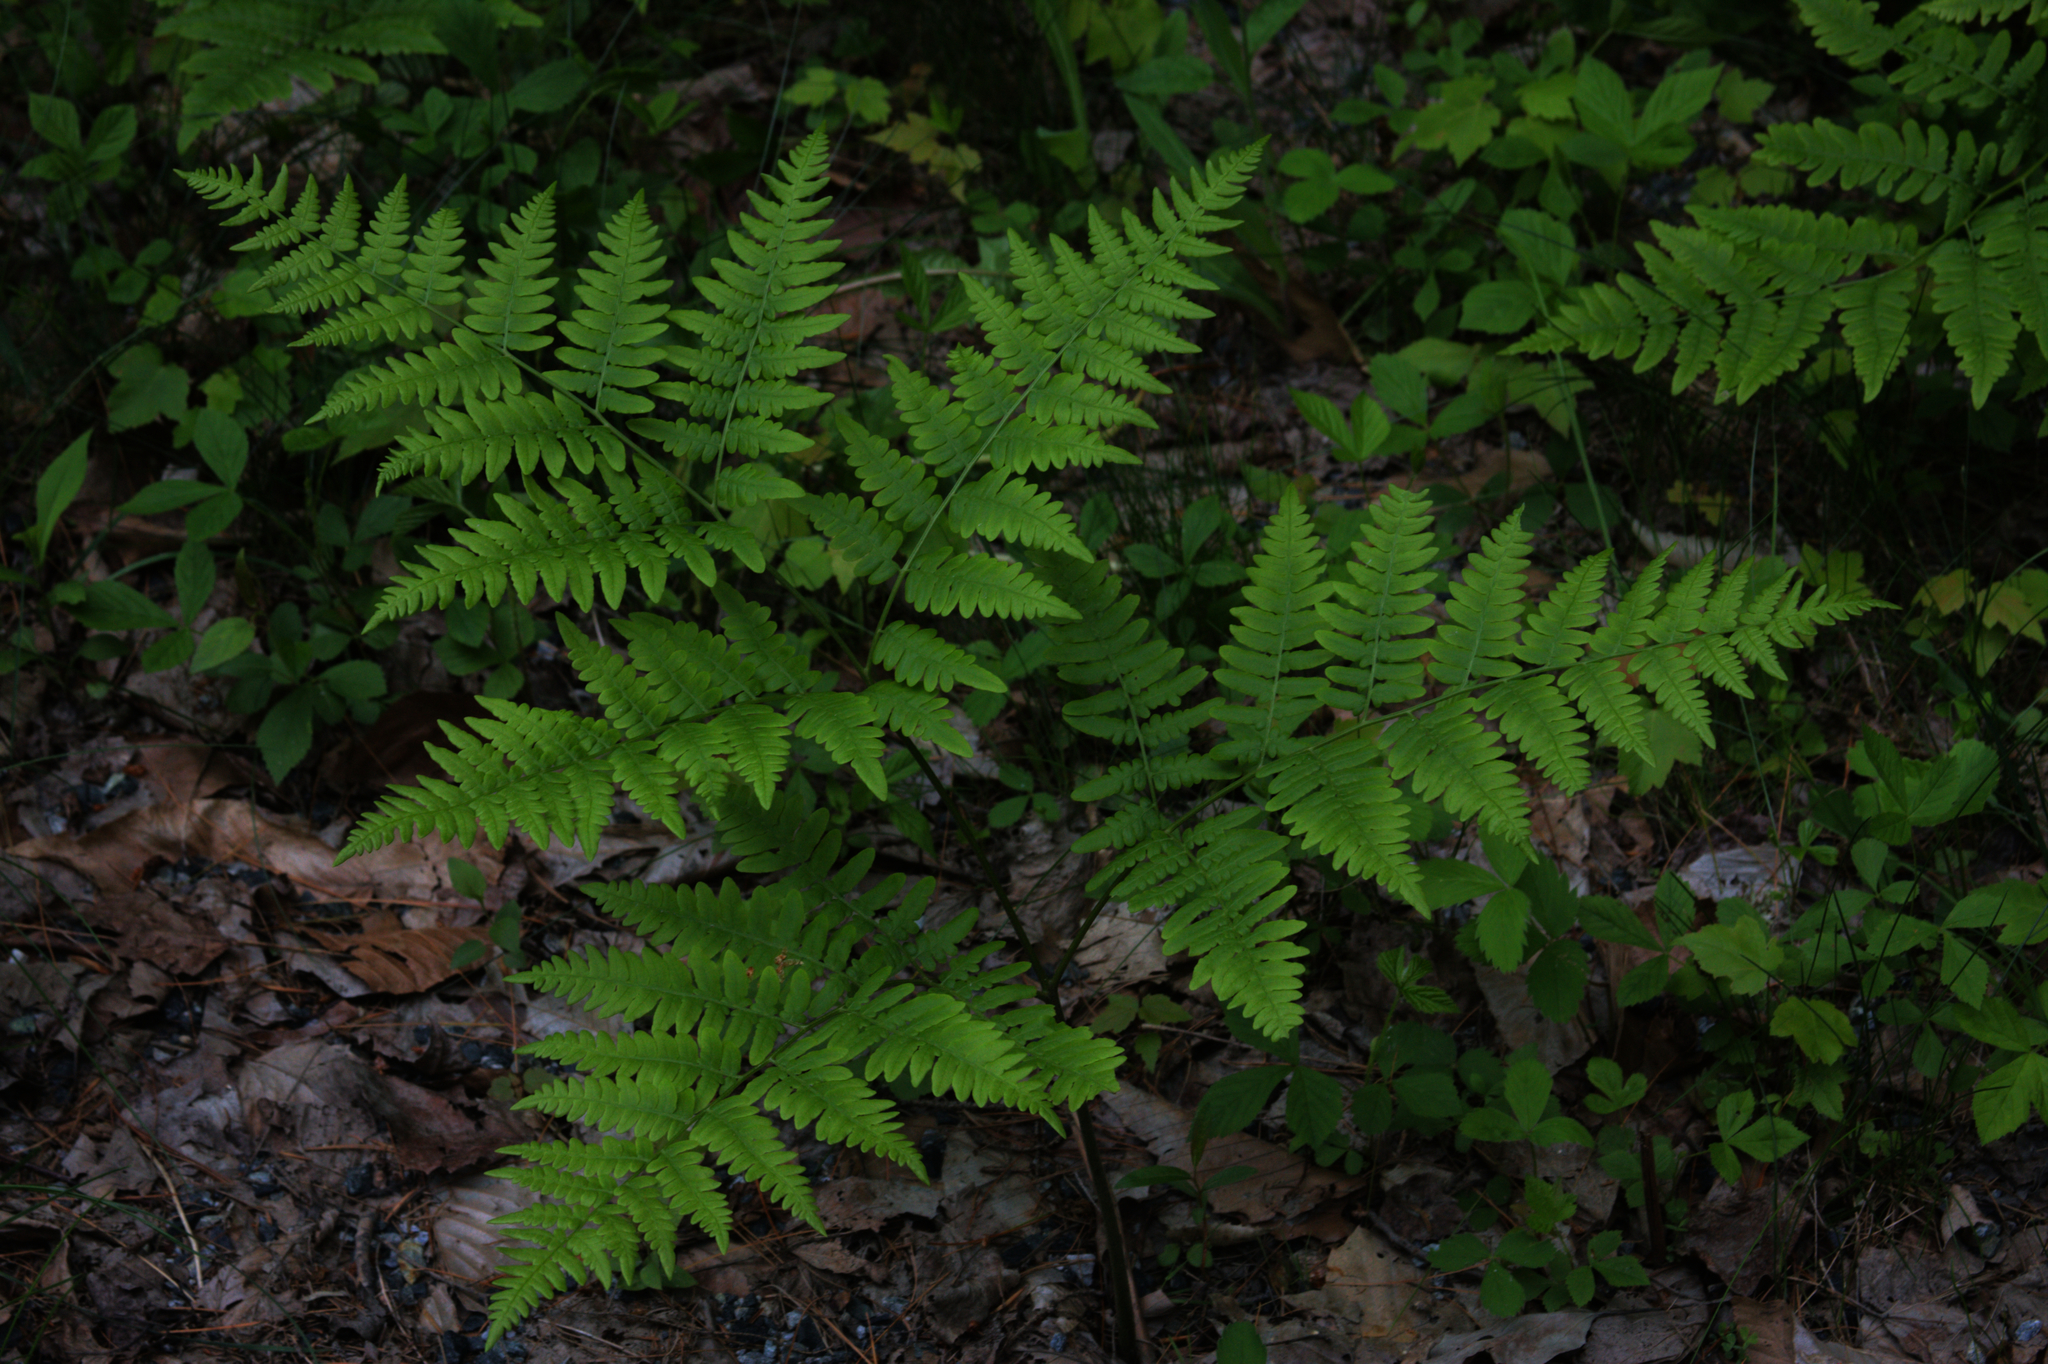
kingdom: Plantae
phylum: Tracheophyta
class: Polypodiopsida
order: Polypodiales
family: Dennstaedtiaceae
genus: Pteridium
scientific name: Pteridium aquilinum
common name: Bracken
